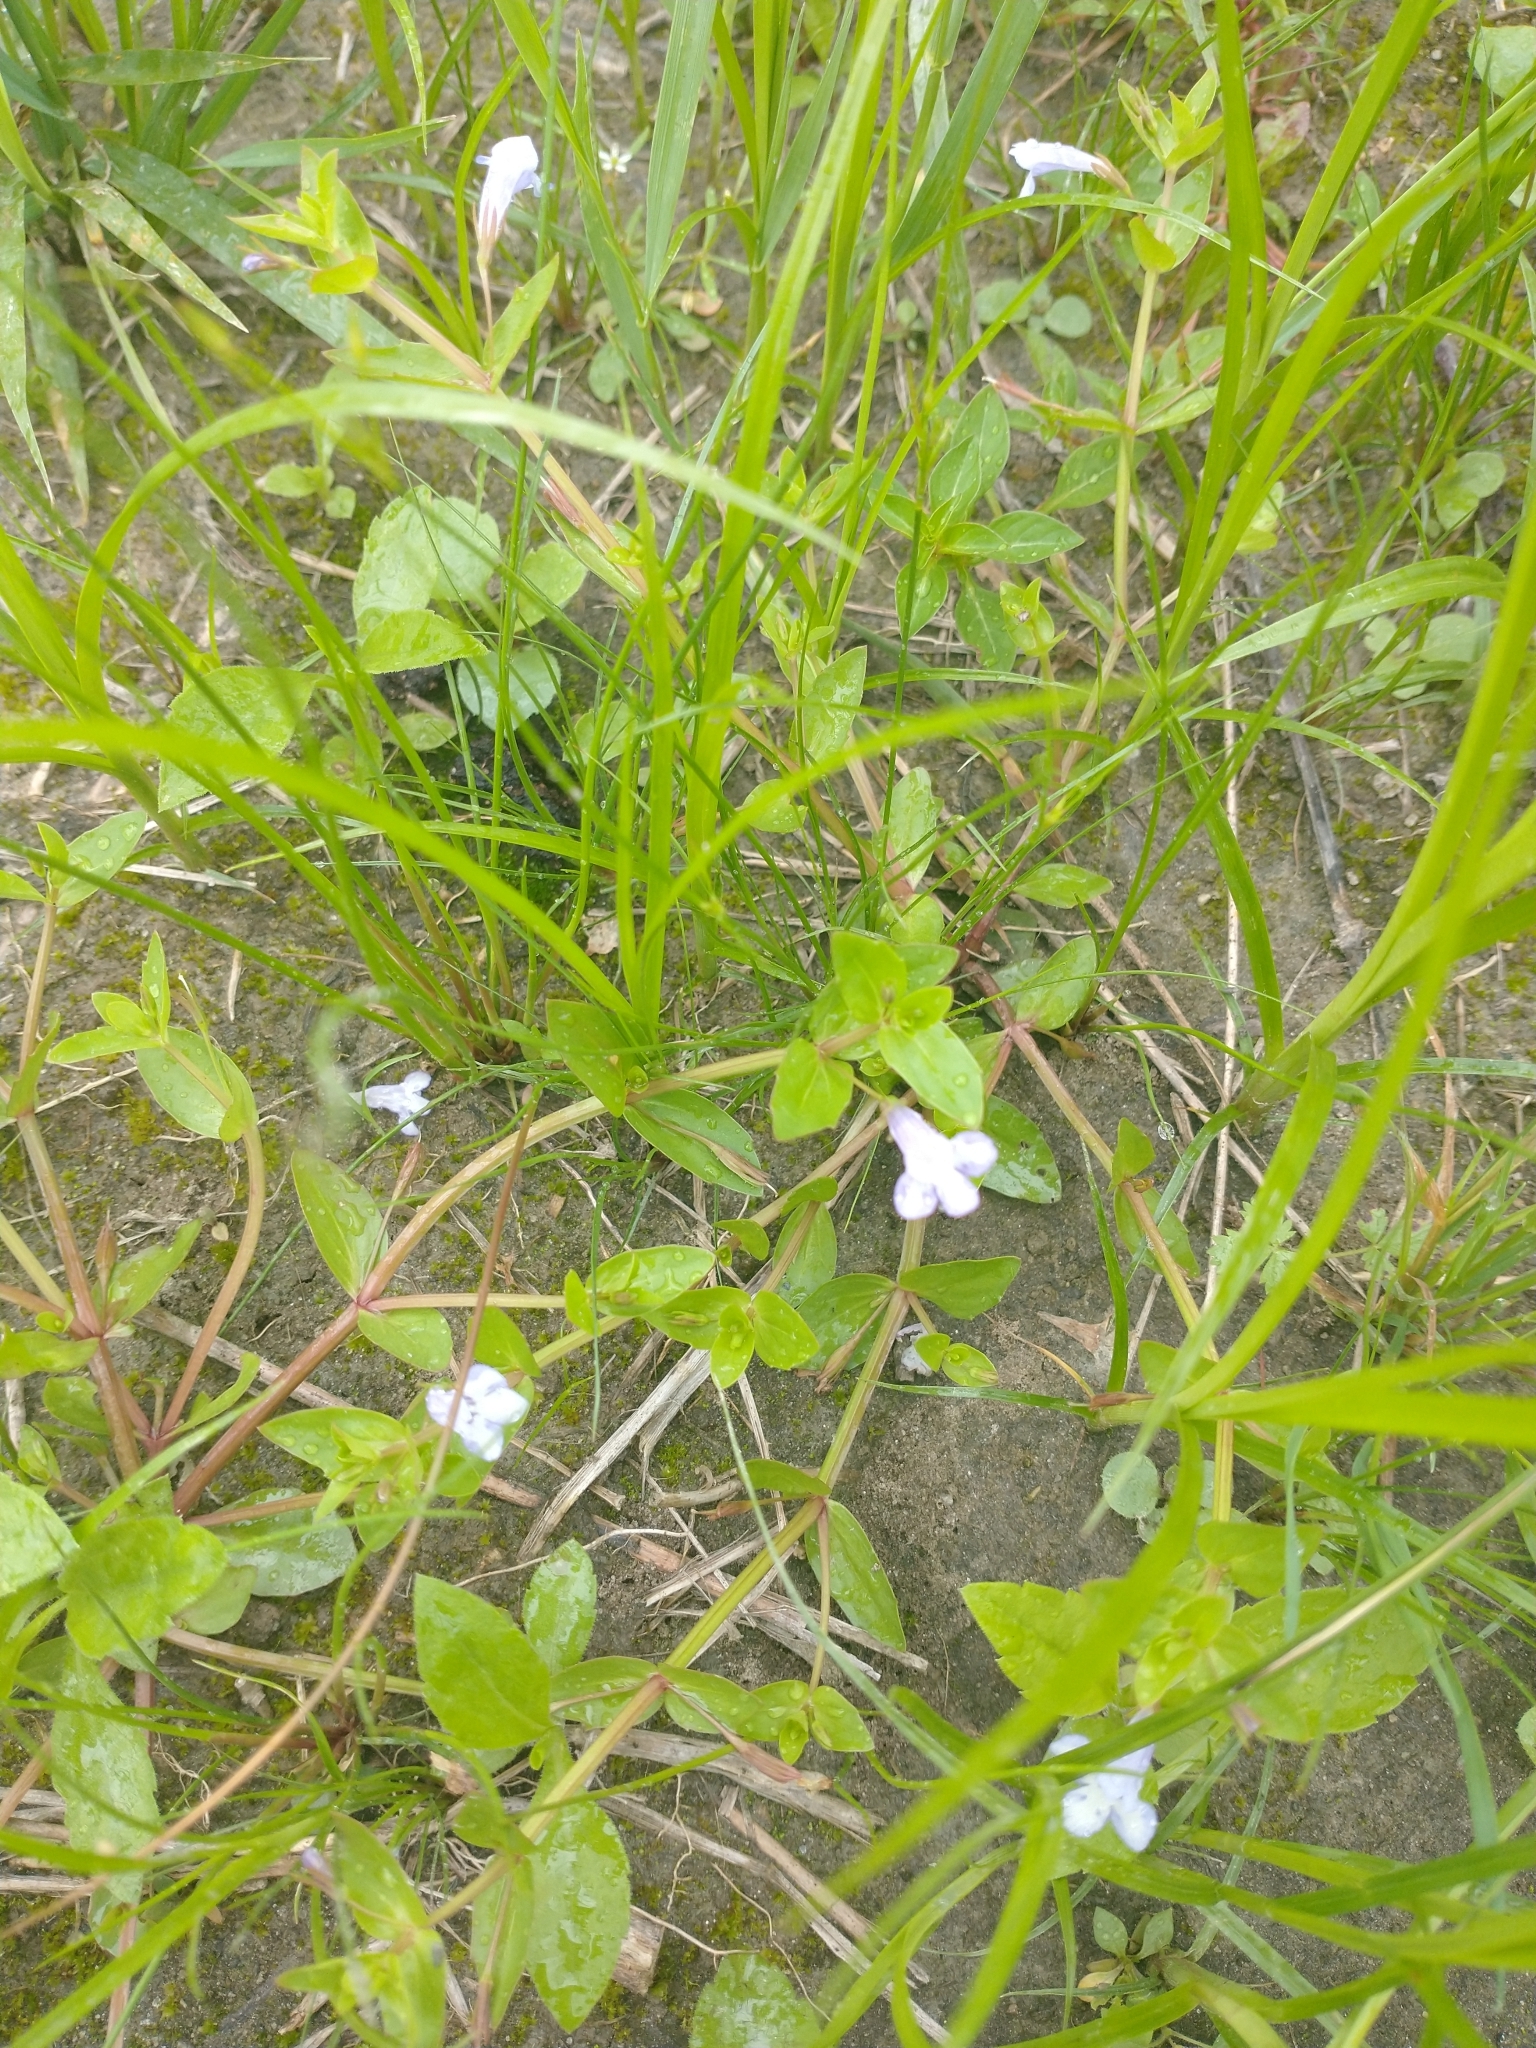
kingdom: Plantae
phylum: Tracheophyta
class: Magnoliopsida
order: Lamiales
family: Linderniaceae
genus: Lindernia
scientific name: Lindernia dubia
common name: Annual false pimpernel
